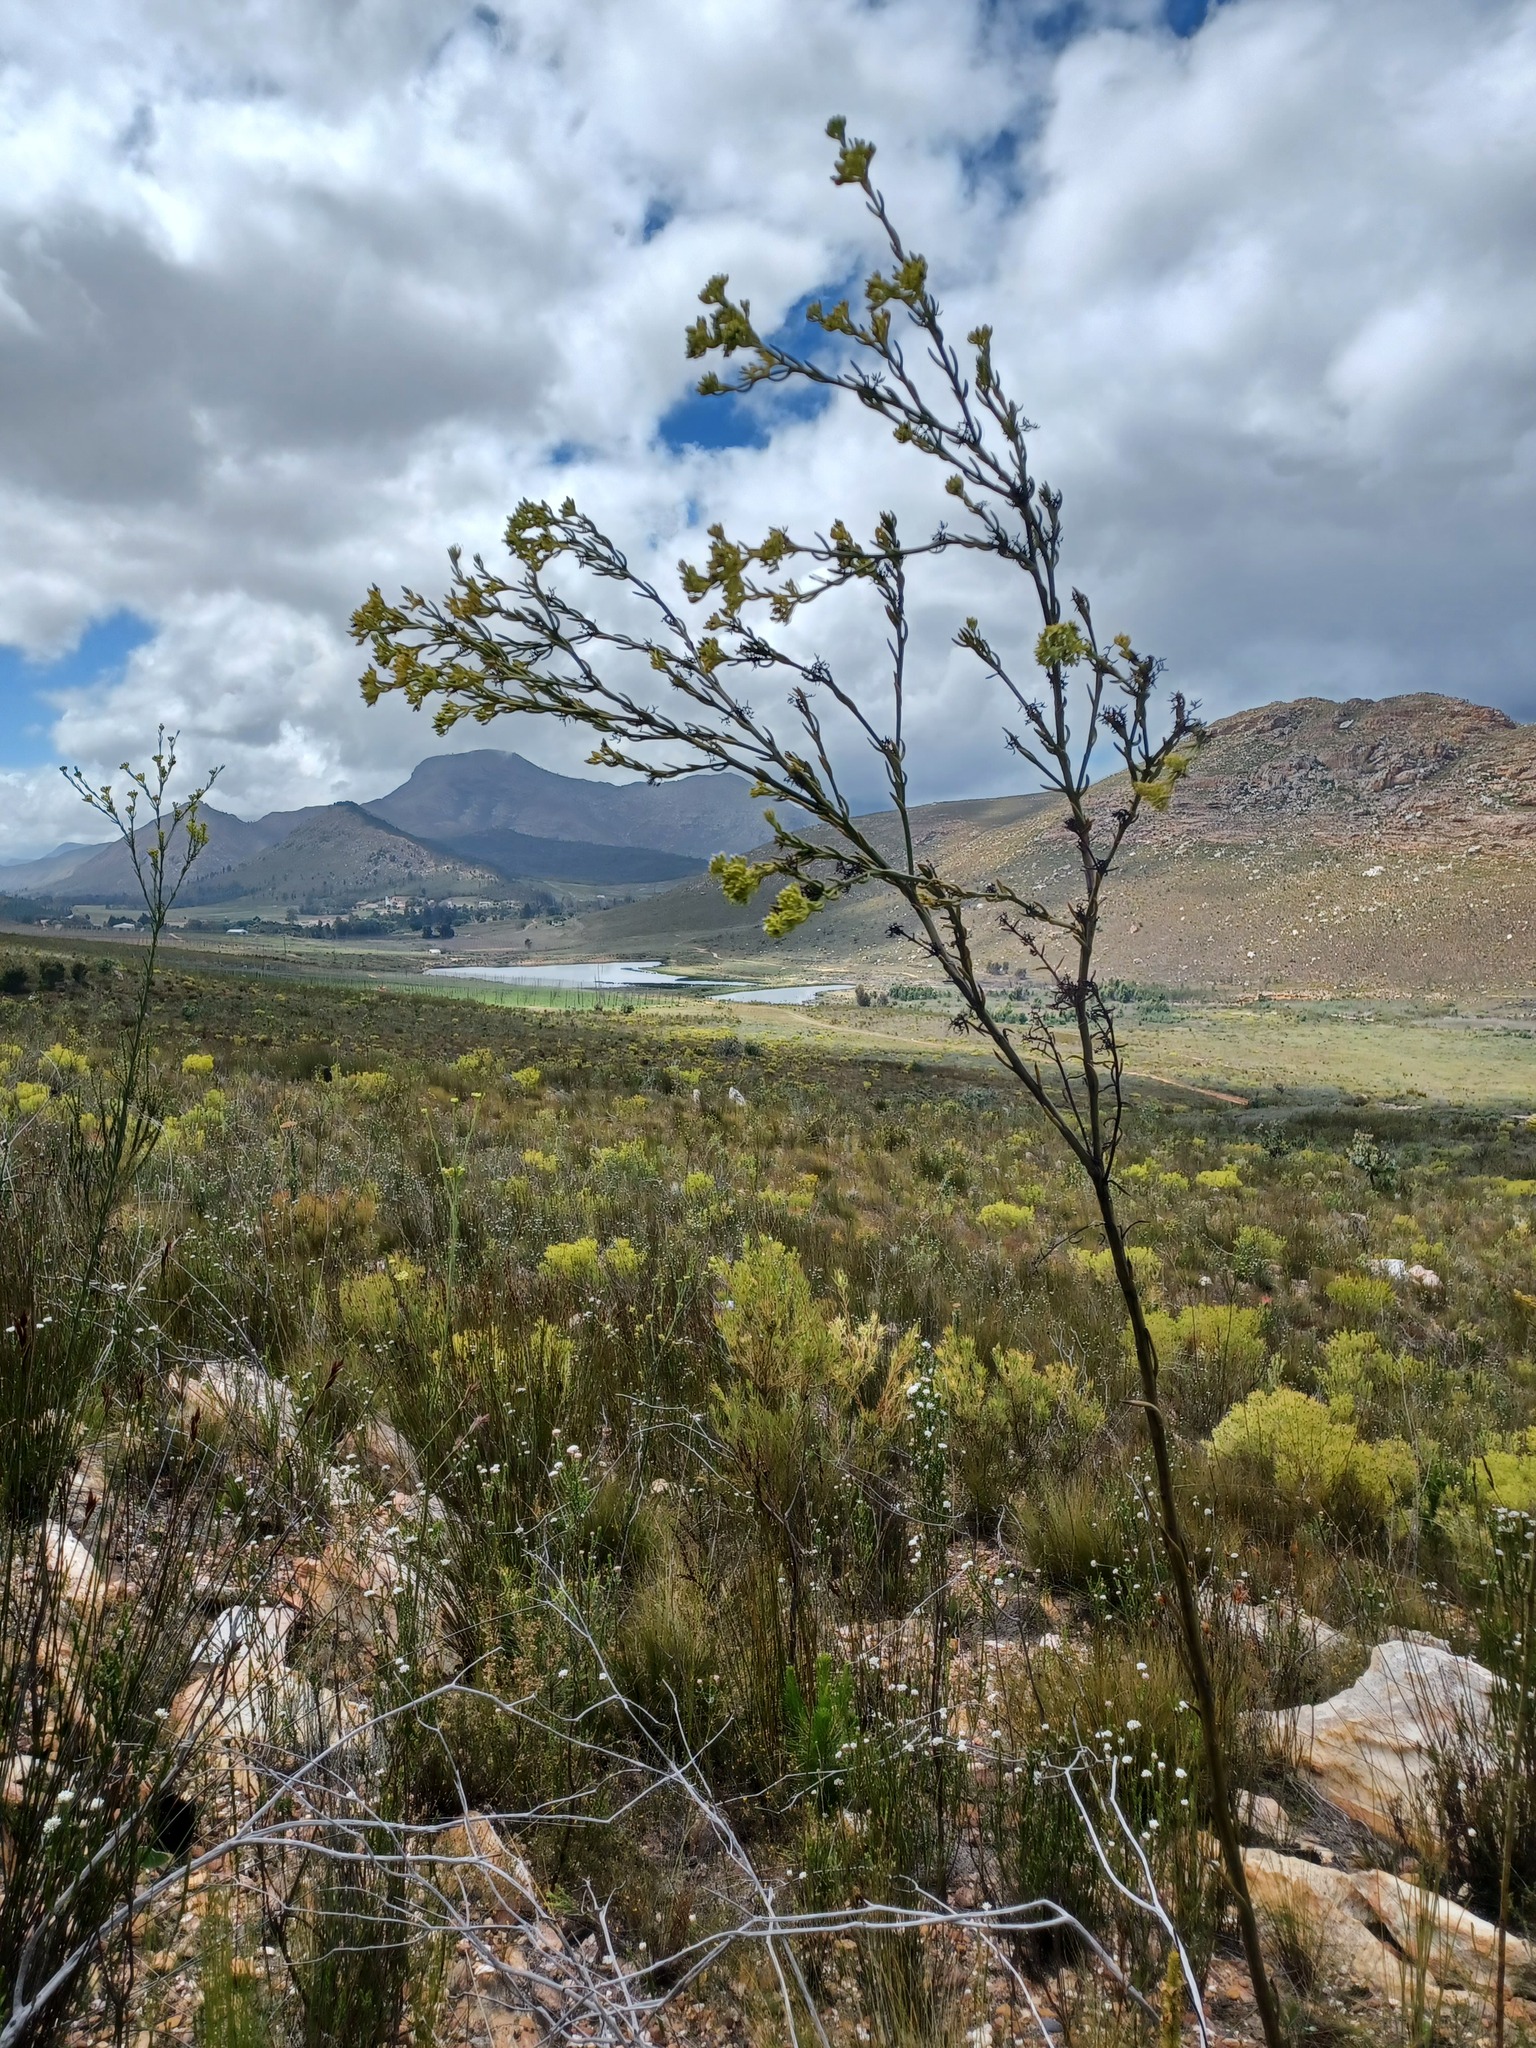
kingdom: Plantae
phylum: Tracheophyta
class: Magnoliopsida
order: Santalales
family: Thesiaceae
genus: Thesium
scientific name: Thesium strictum
